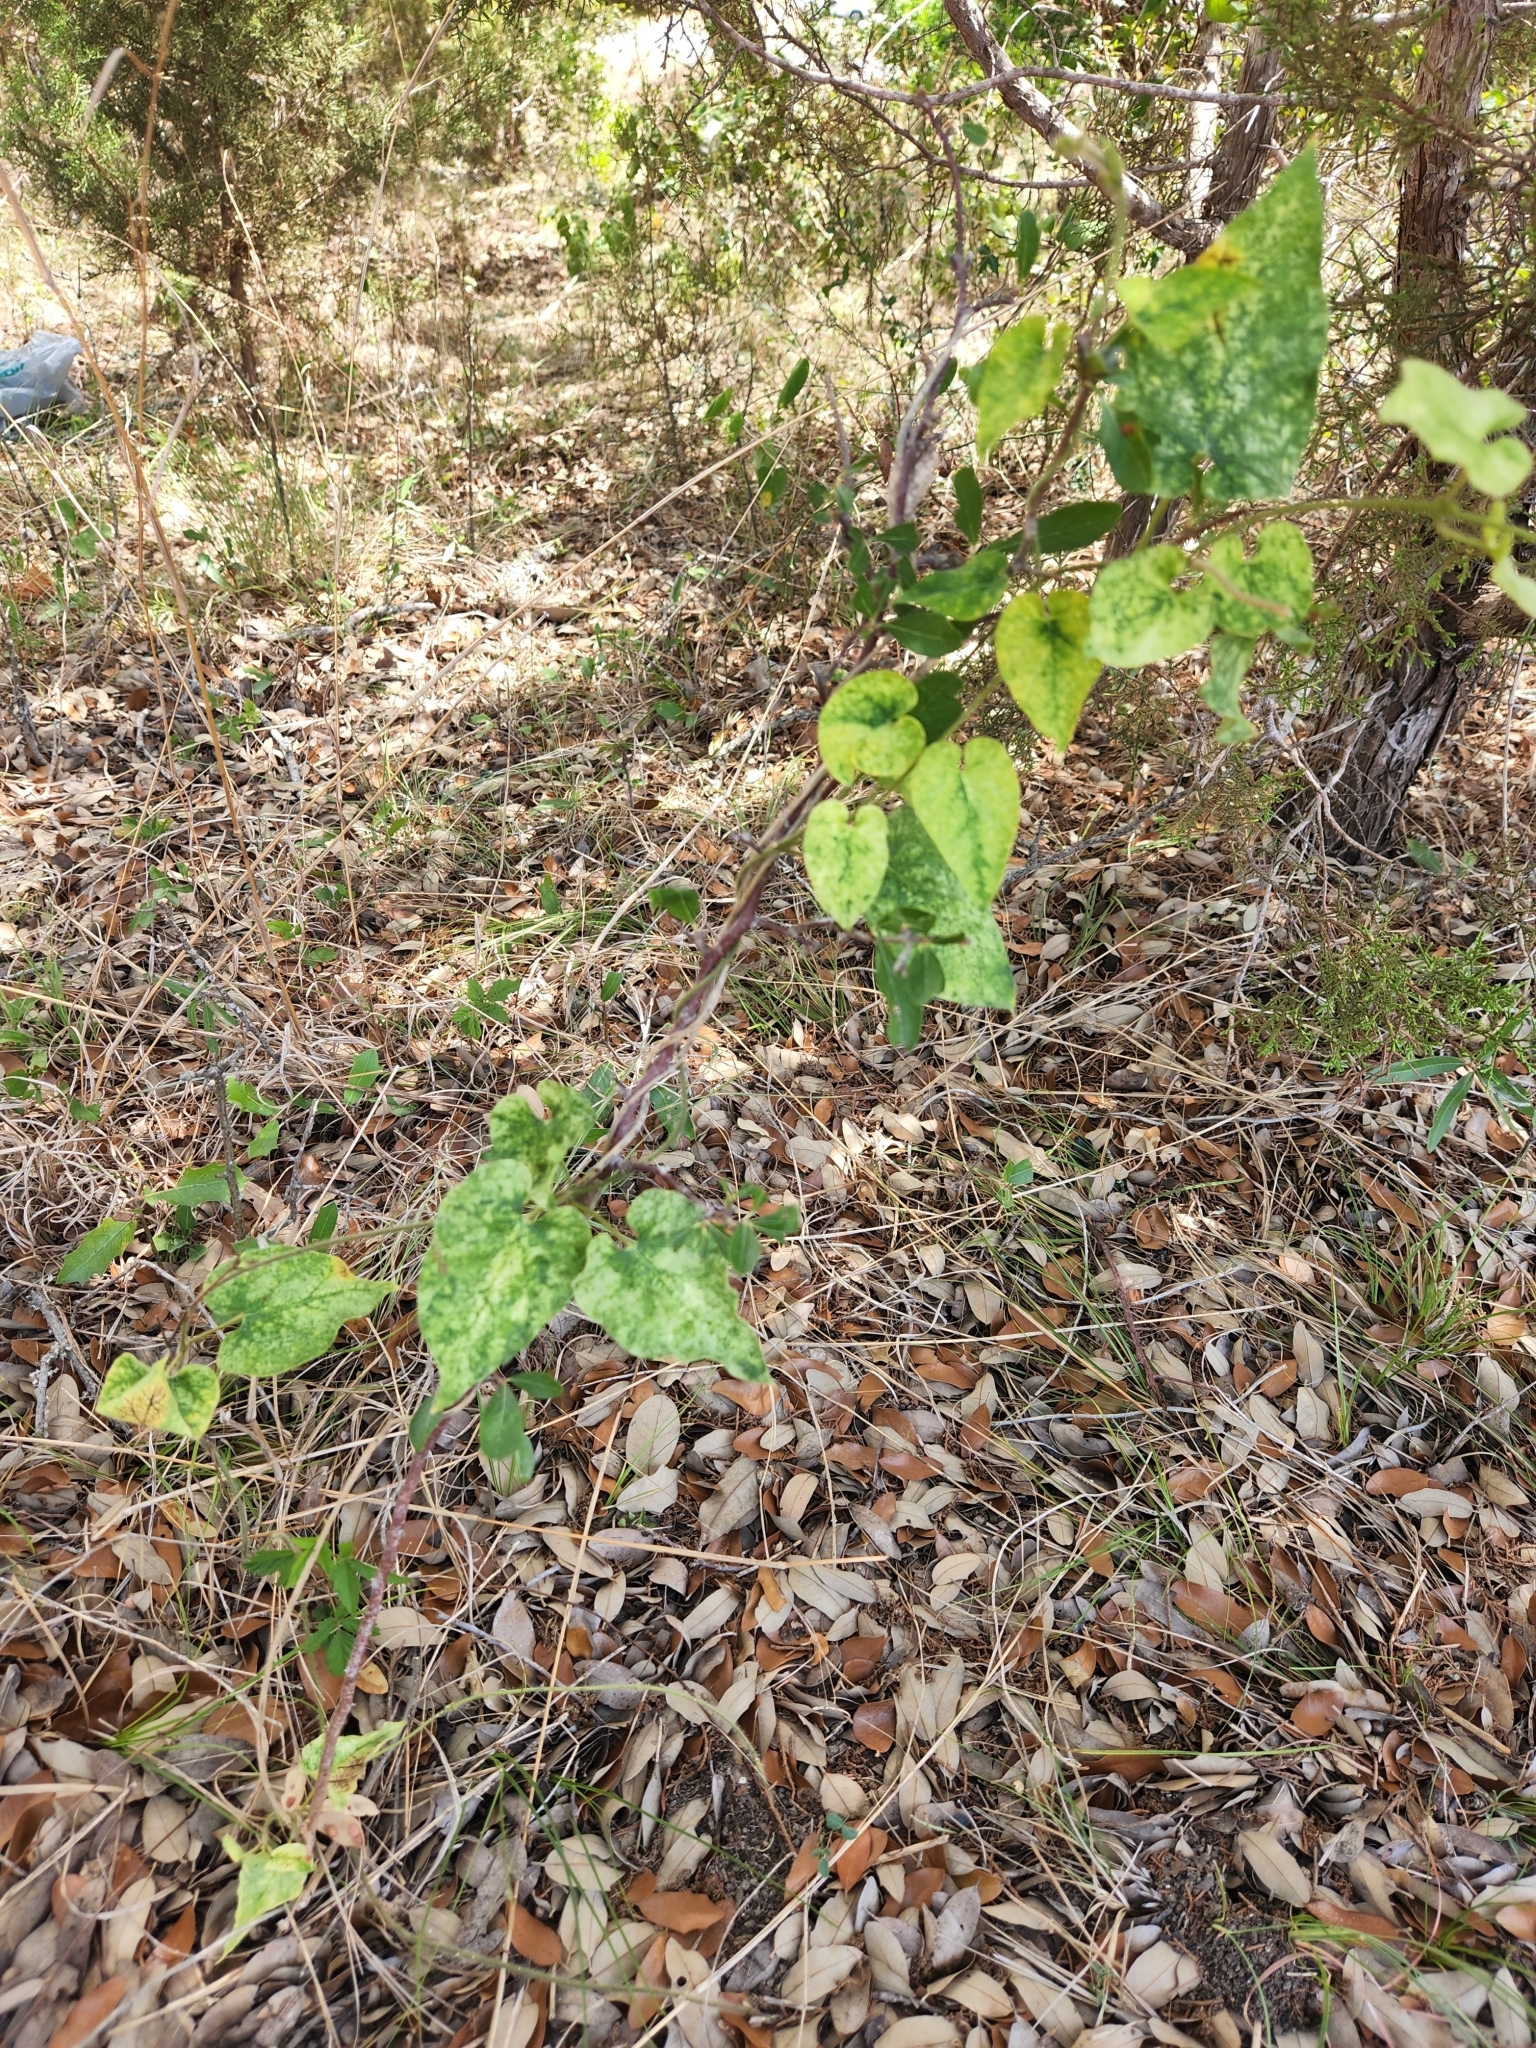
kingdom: Plantae
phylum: Tracheophyta
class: Magnoliopsida
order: Gentianales
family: Apocynaceae
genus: Dictyanthus
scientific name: Dictyanthus reticulatus
